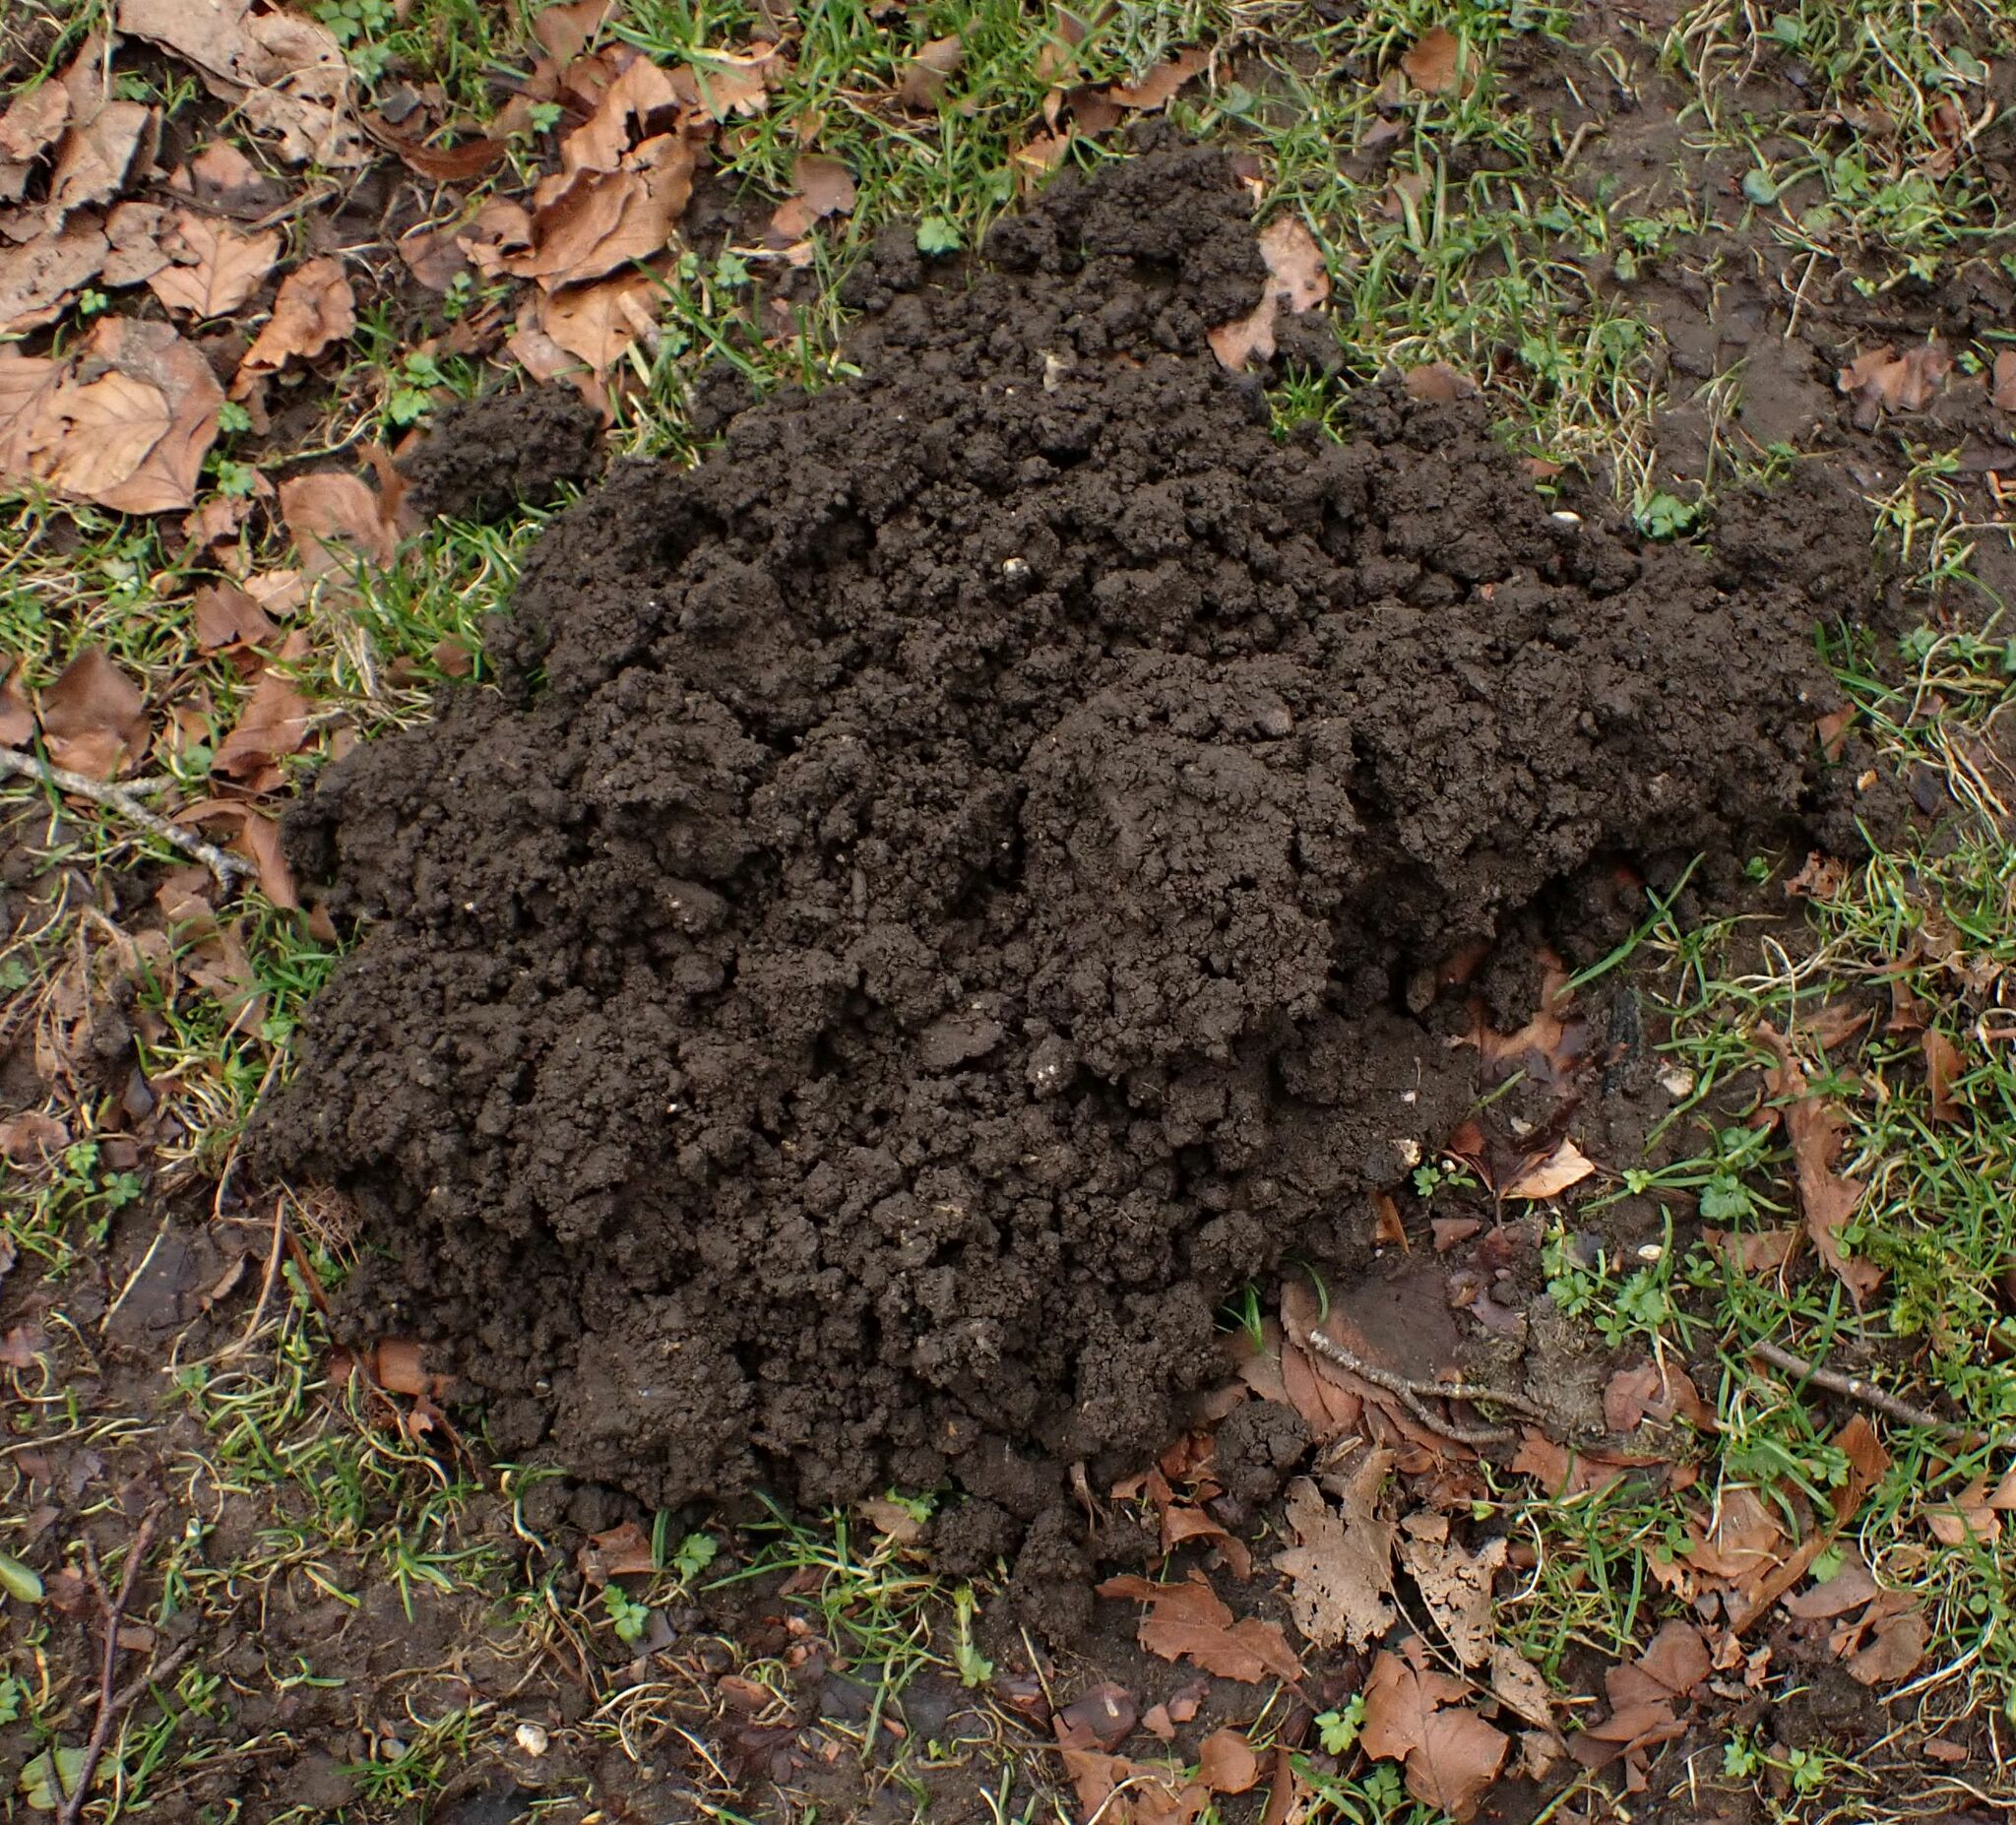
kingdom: Animalia
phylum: Chordata
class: Mammalia
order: Soricomorpha
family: Talpidae
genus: Talpa
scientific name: Talpa europaea
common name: European mole
